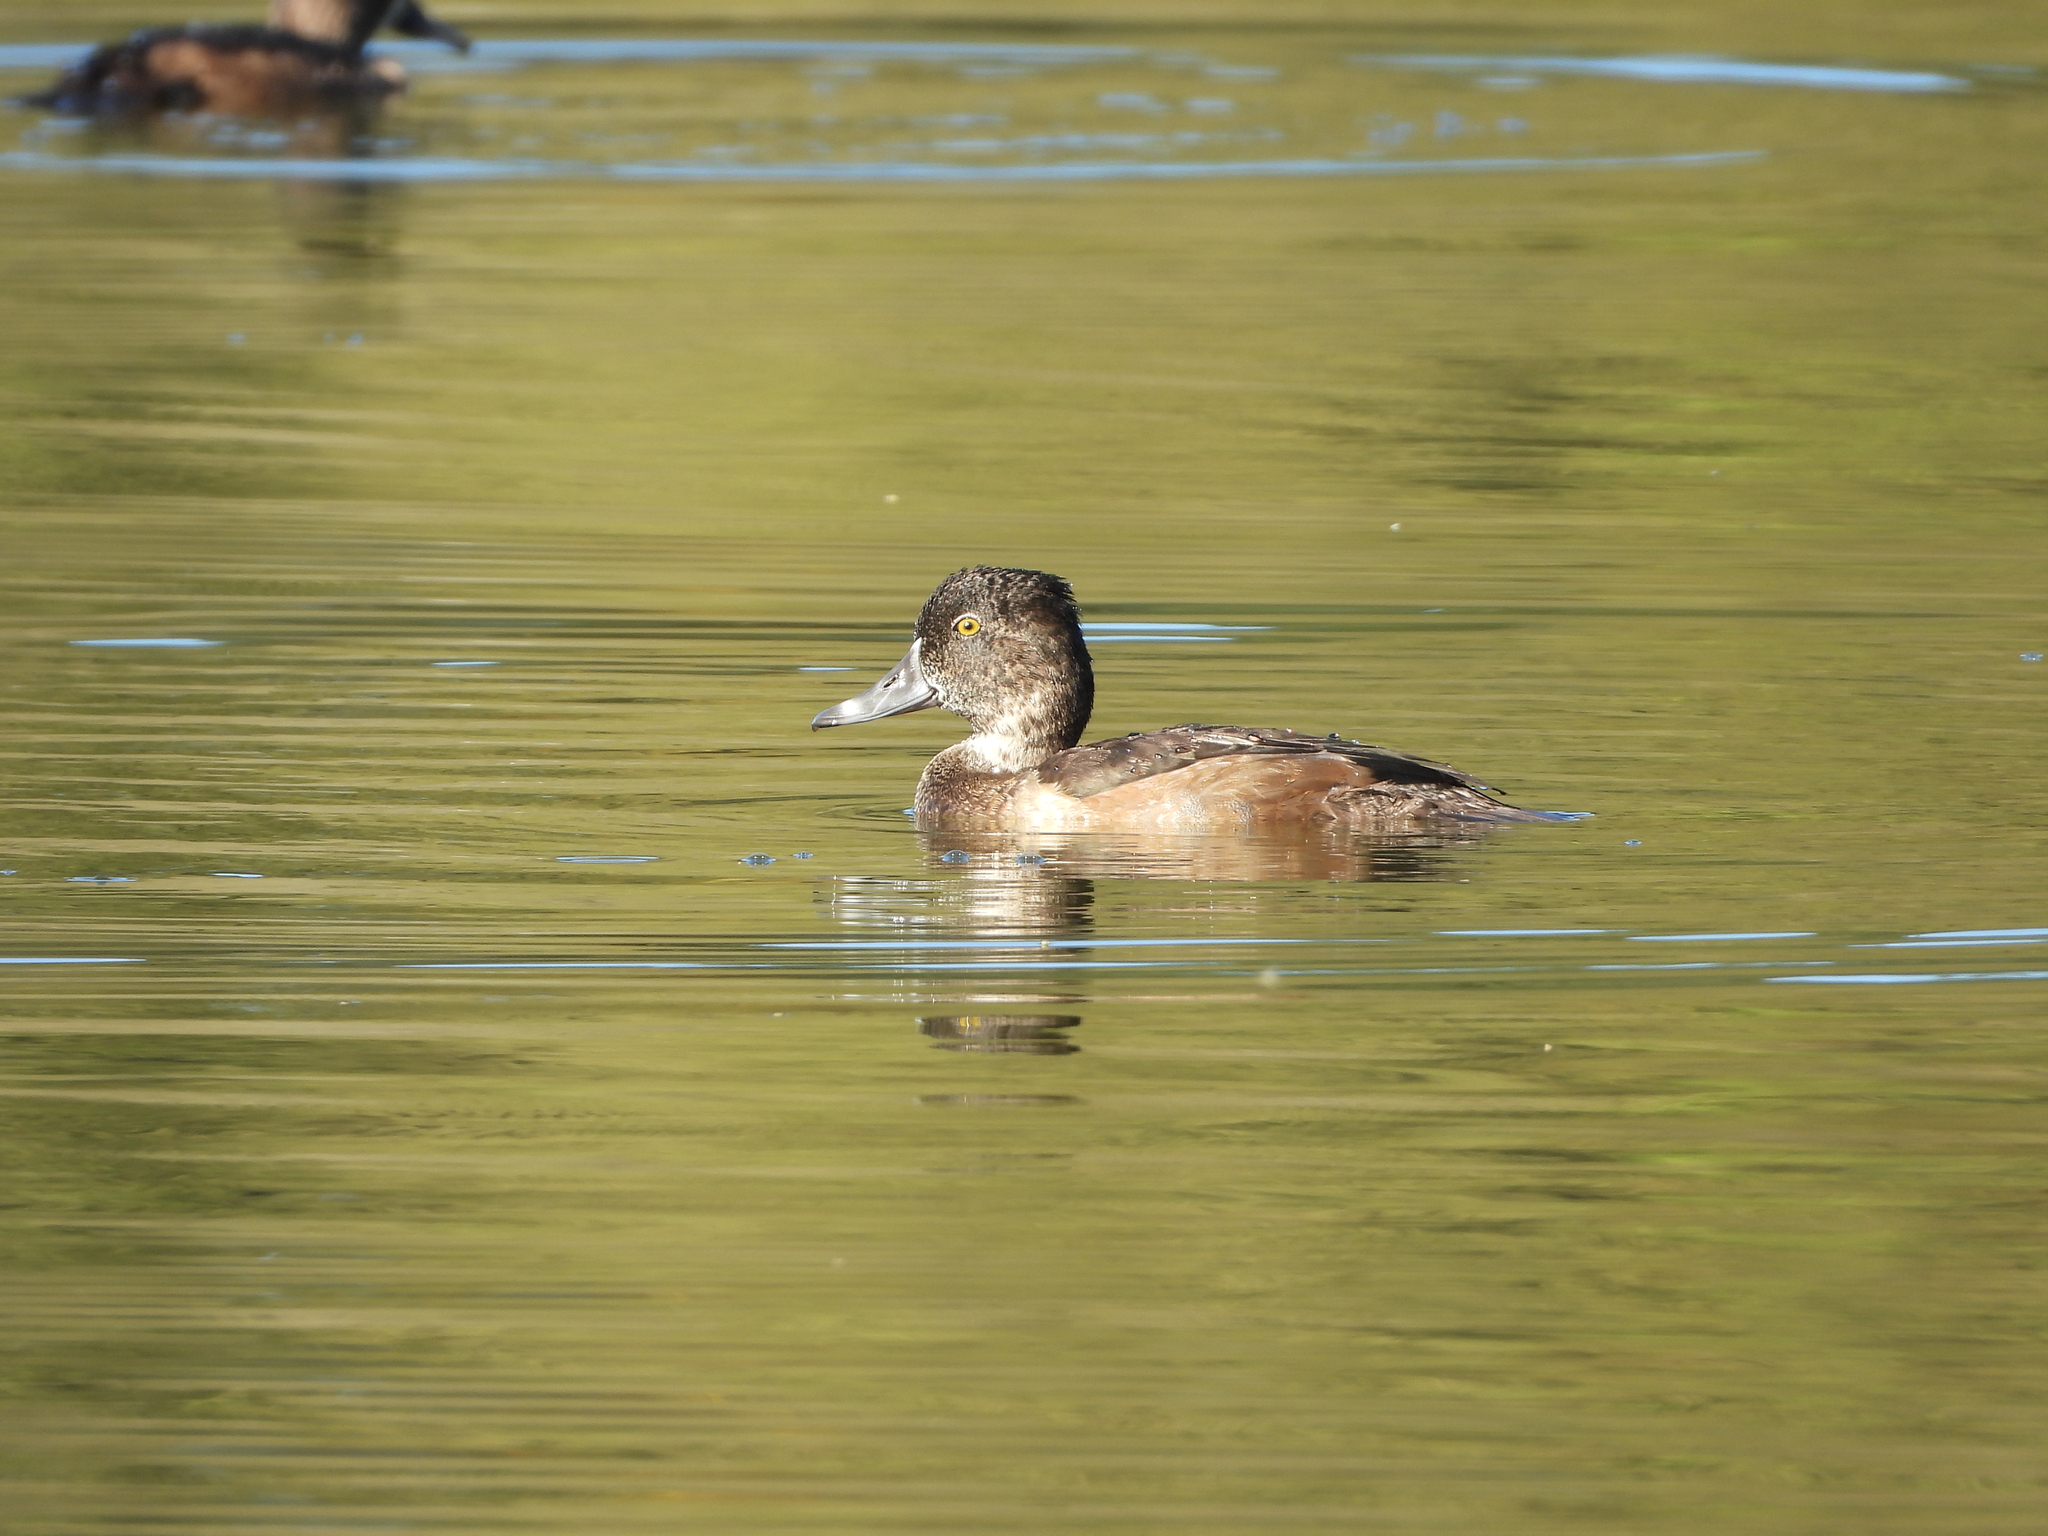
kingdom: Animalia
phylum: Chordata
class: Aves
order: Anseriformes
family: Anatidae
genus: Aythya
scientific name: Aythya collaris
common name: Ring-necked duck
